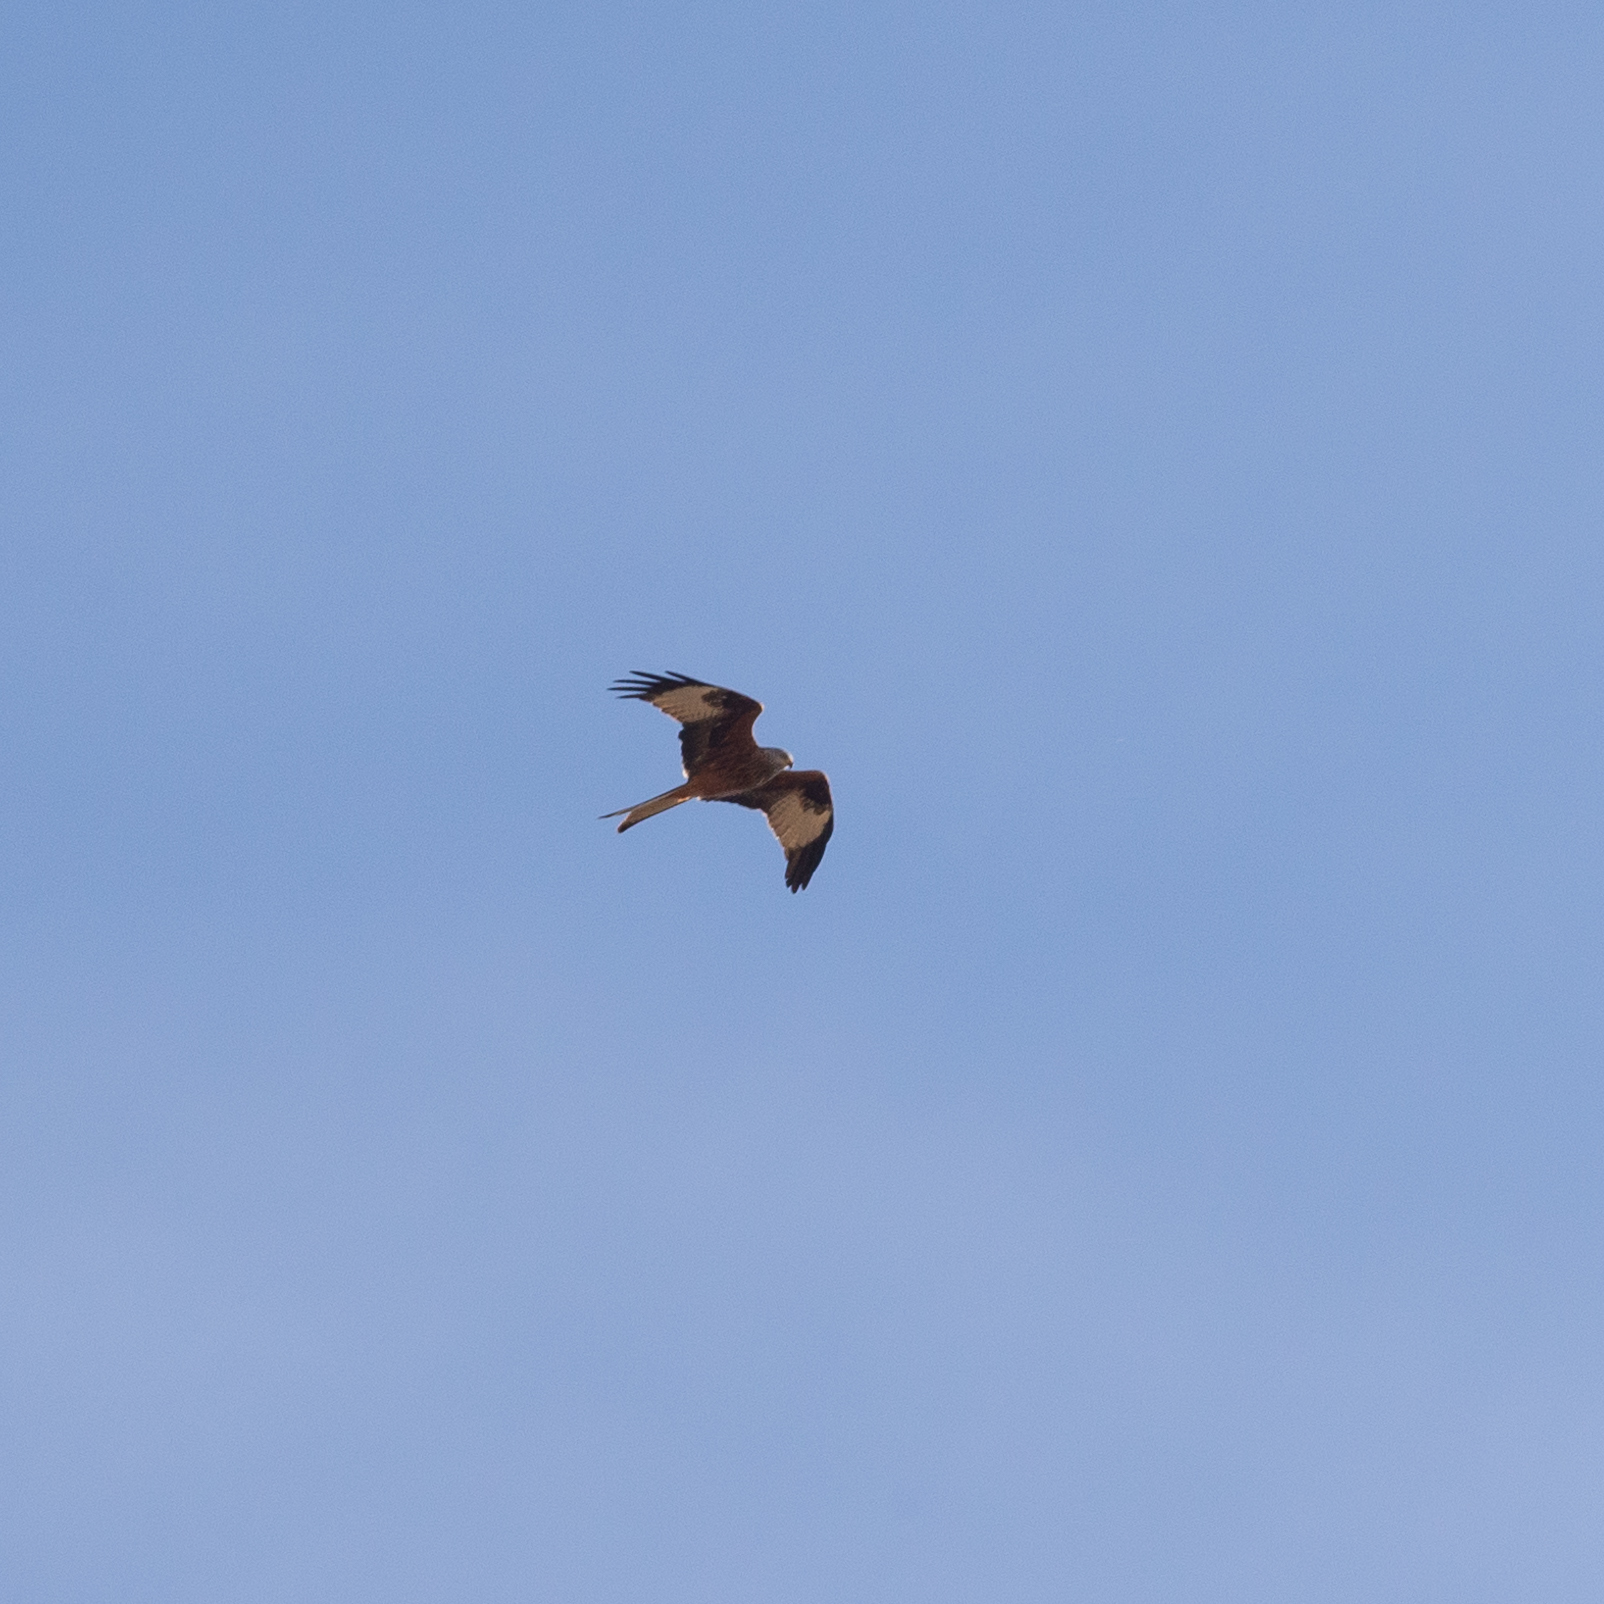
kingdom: Animalia
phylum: Chordata
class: Aves
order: Accipitriformes
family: Accipitridae
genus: Milvus
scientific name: Milvus milvus
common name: Red kite
